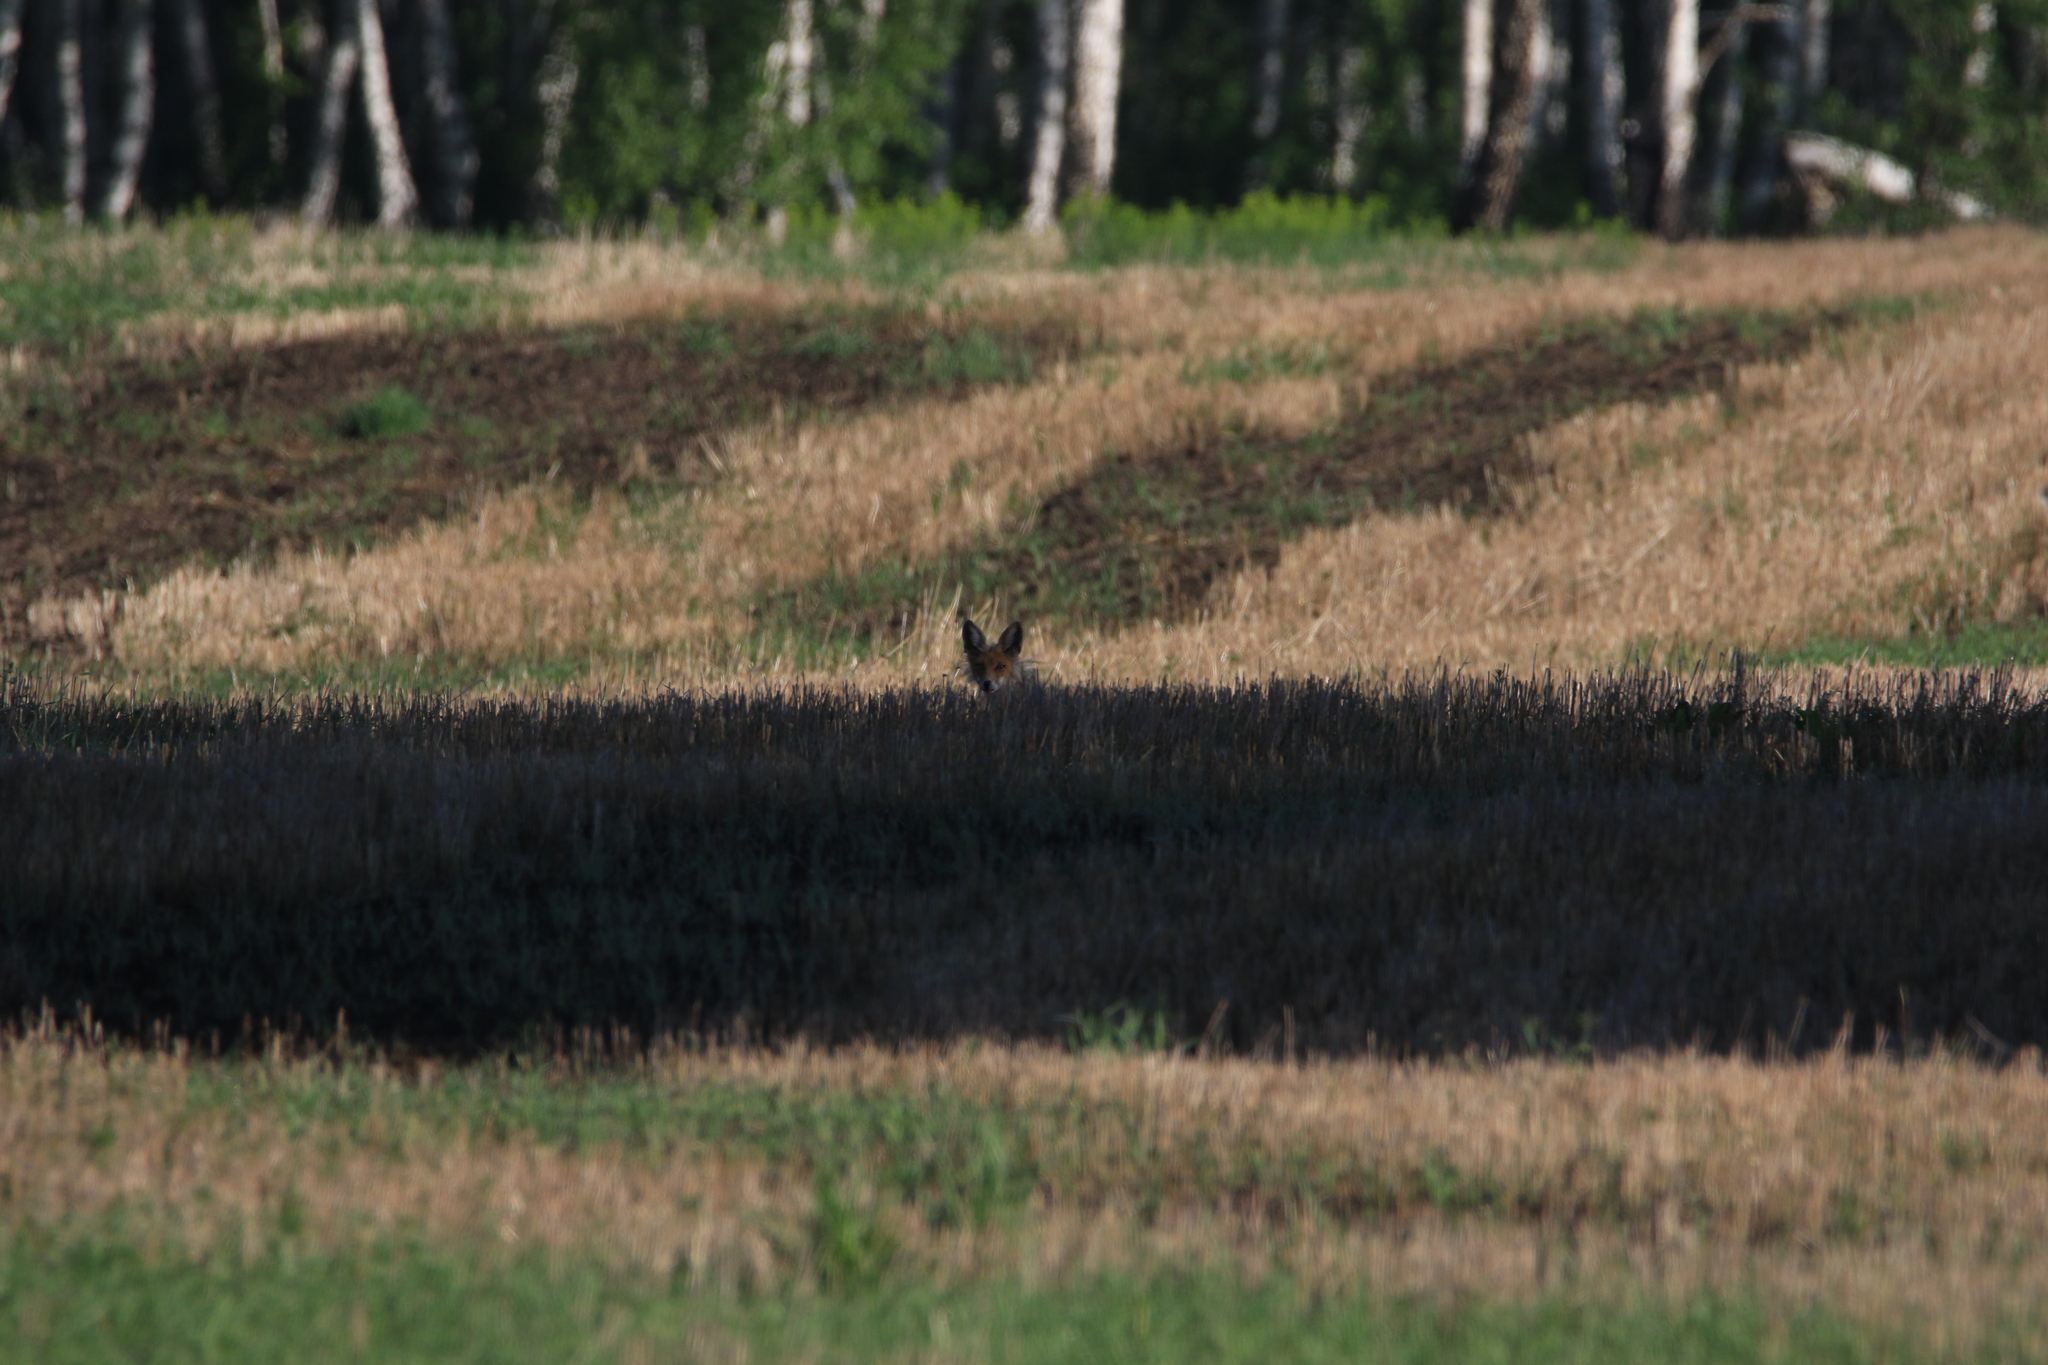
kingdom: Animalia
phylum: Chordata
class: Mammalia
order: Carnivora
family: Canidae
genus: Vulpes
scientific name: Vulpes vulpes
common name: Red fox
